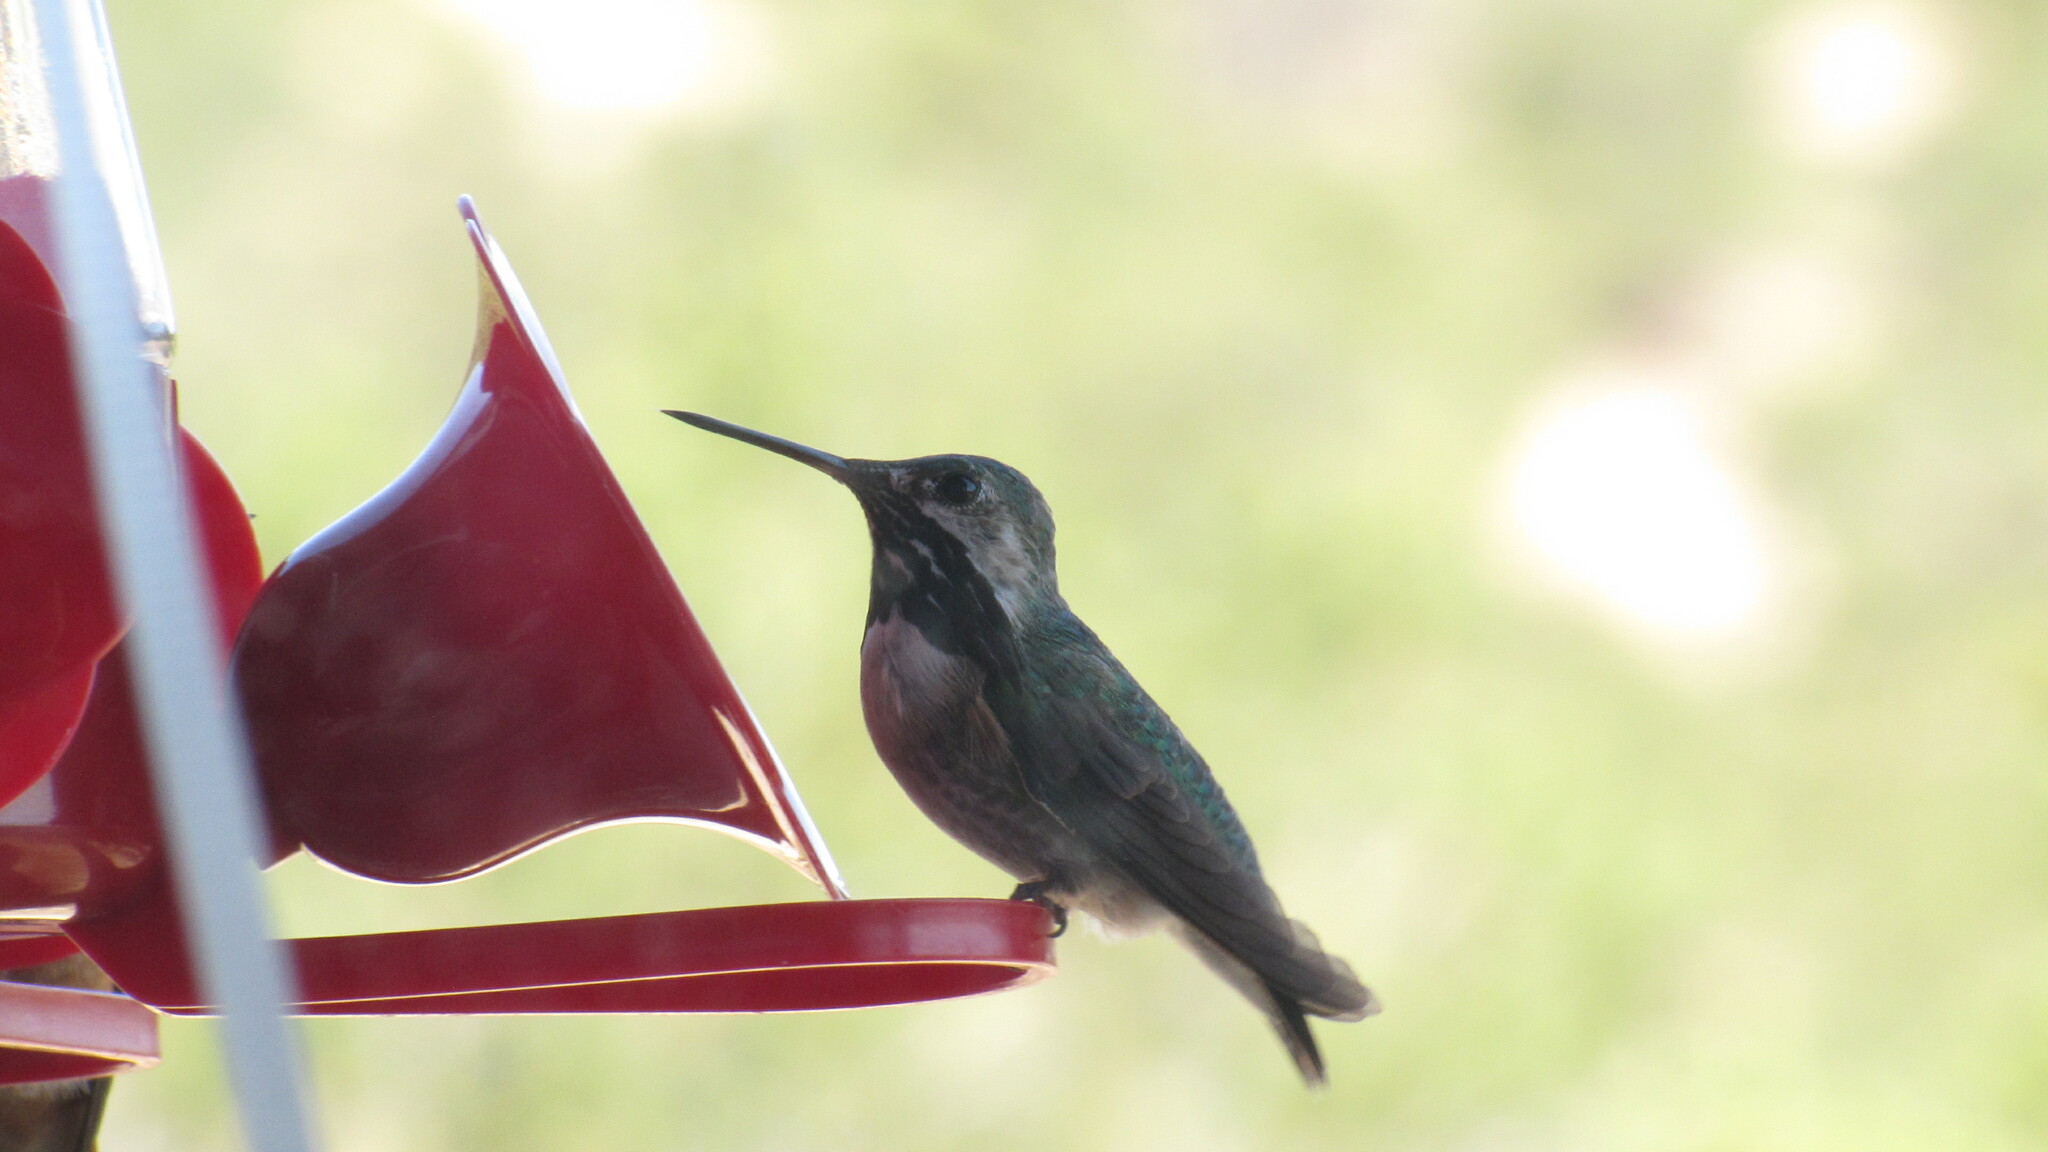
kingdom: Animalia
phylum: Chordata
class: Aves
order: Apodiformes
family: Trochilidae
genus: Selasphorus
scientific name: Selasphorus calliope
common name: Calliope hummingbird
